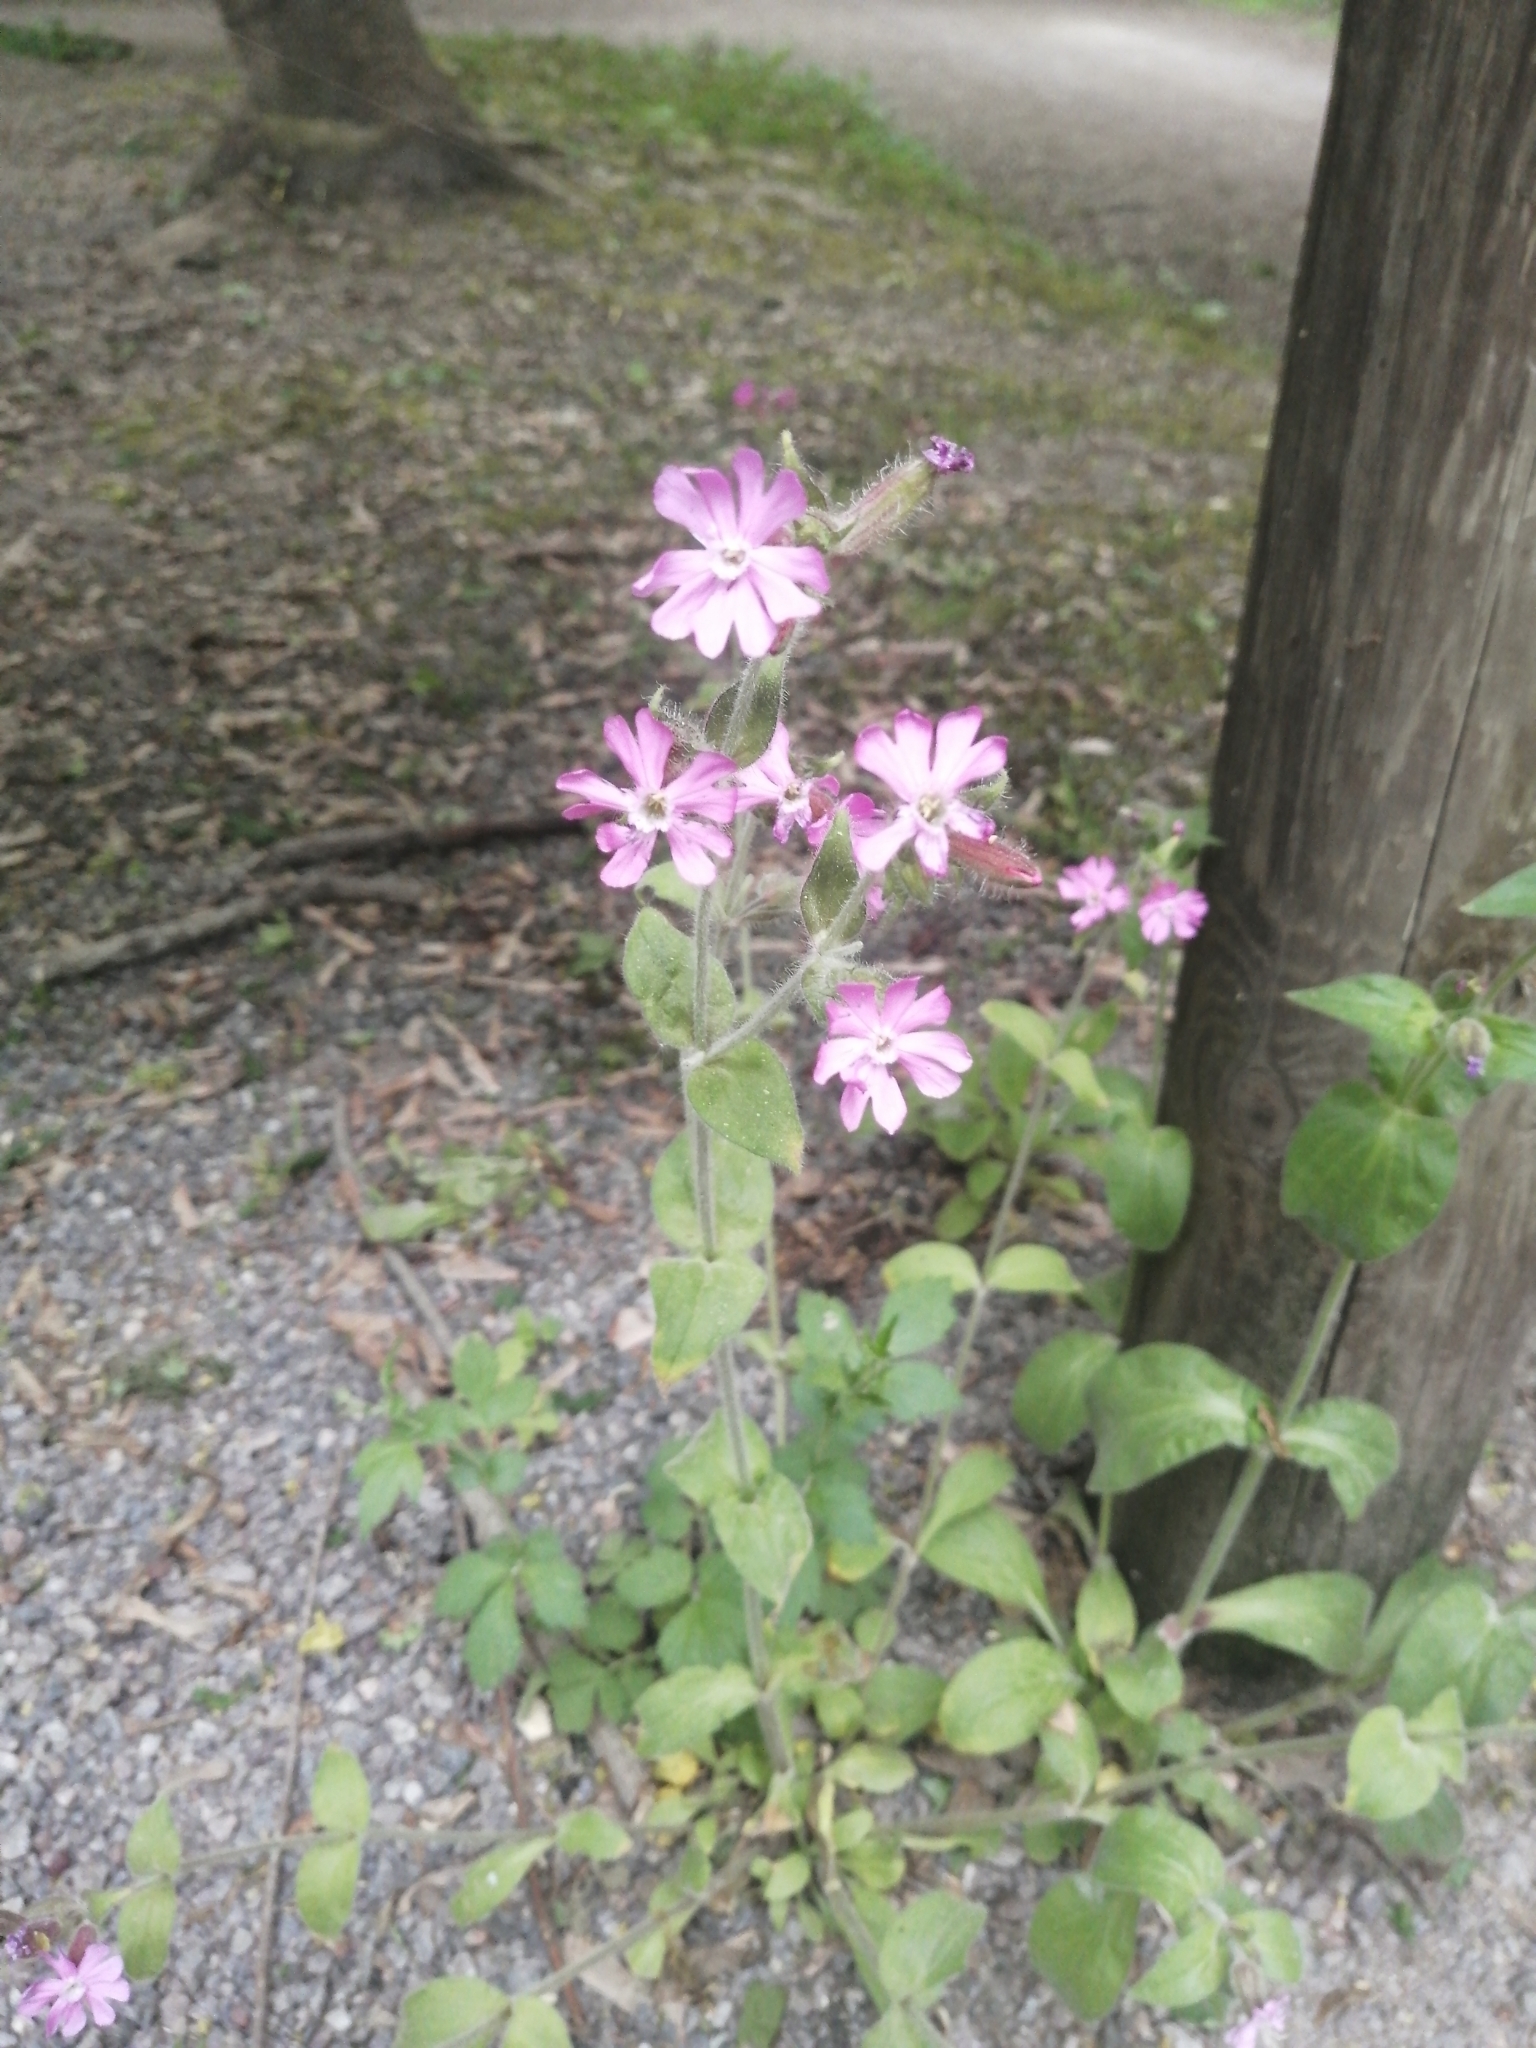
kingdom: Plantae
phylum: Tracheophyta
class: Magnoliopsida
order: Caryophyllales
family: Caryophyllaceae
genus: Silene
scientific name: Silene dioica
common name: Red campion
